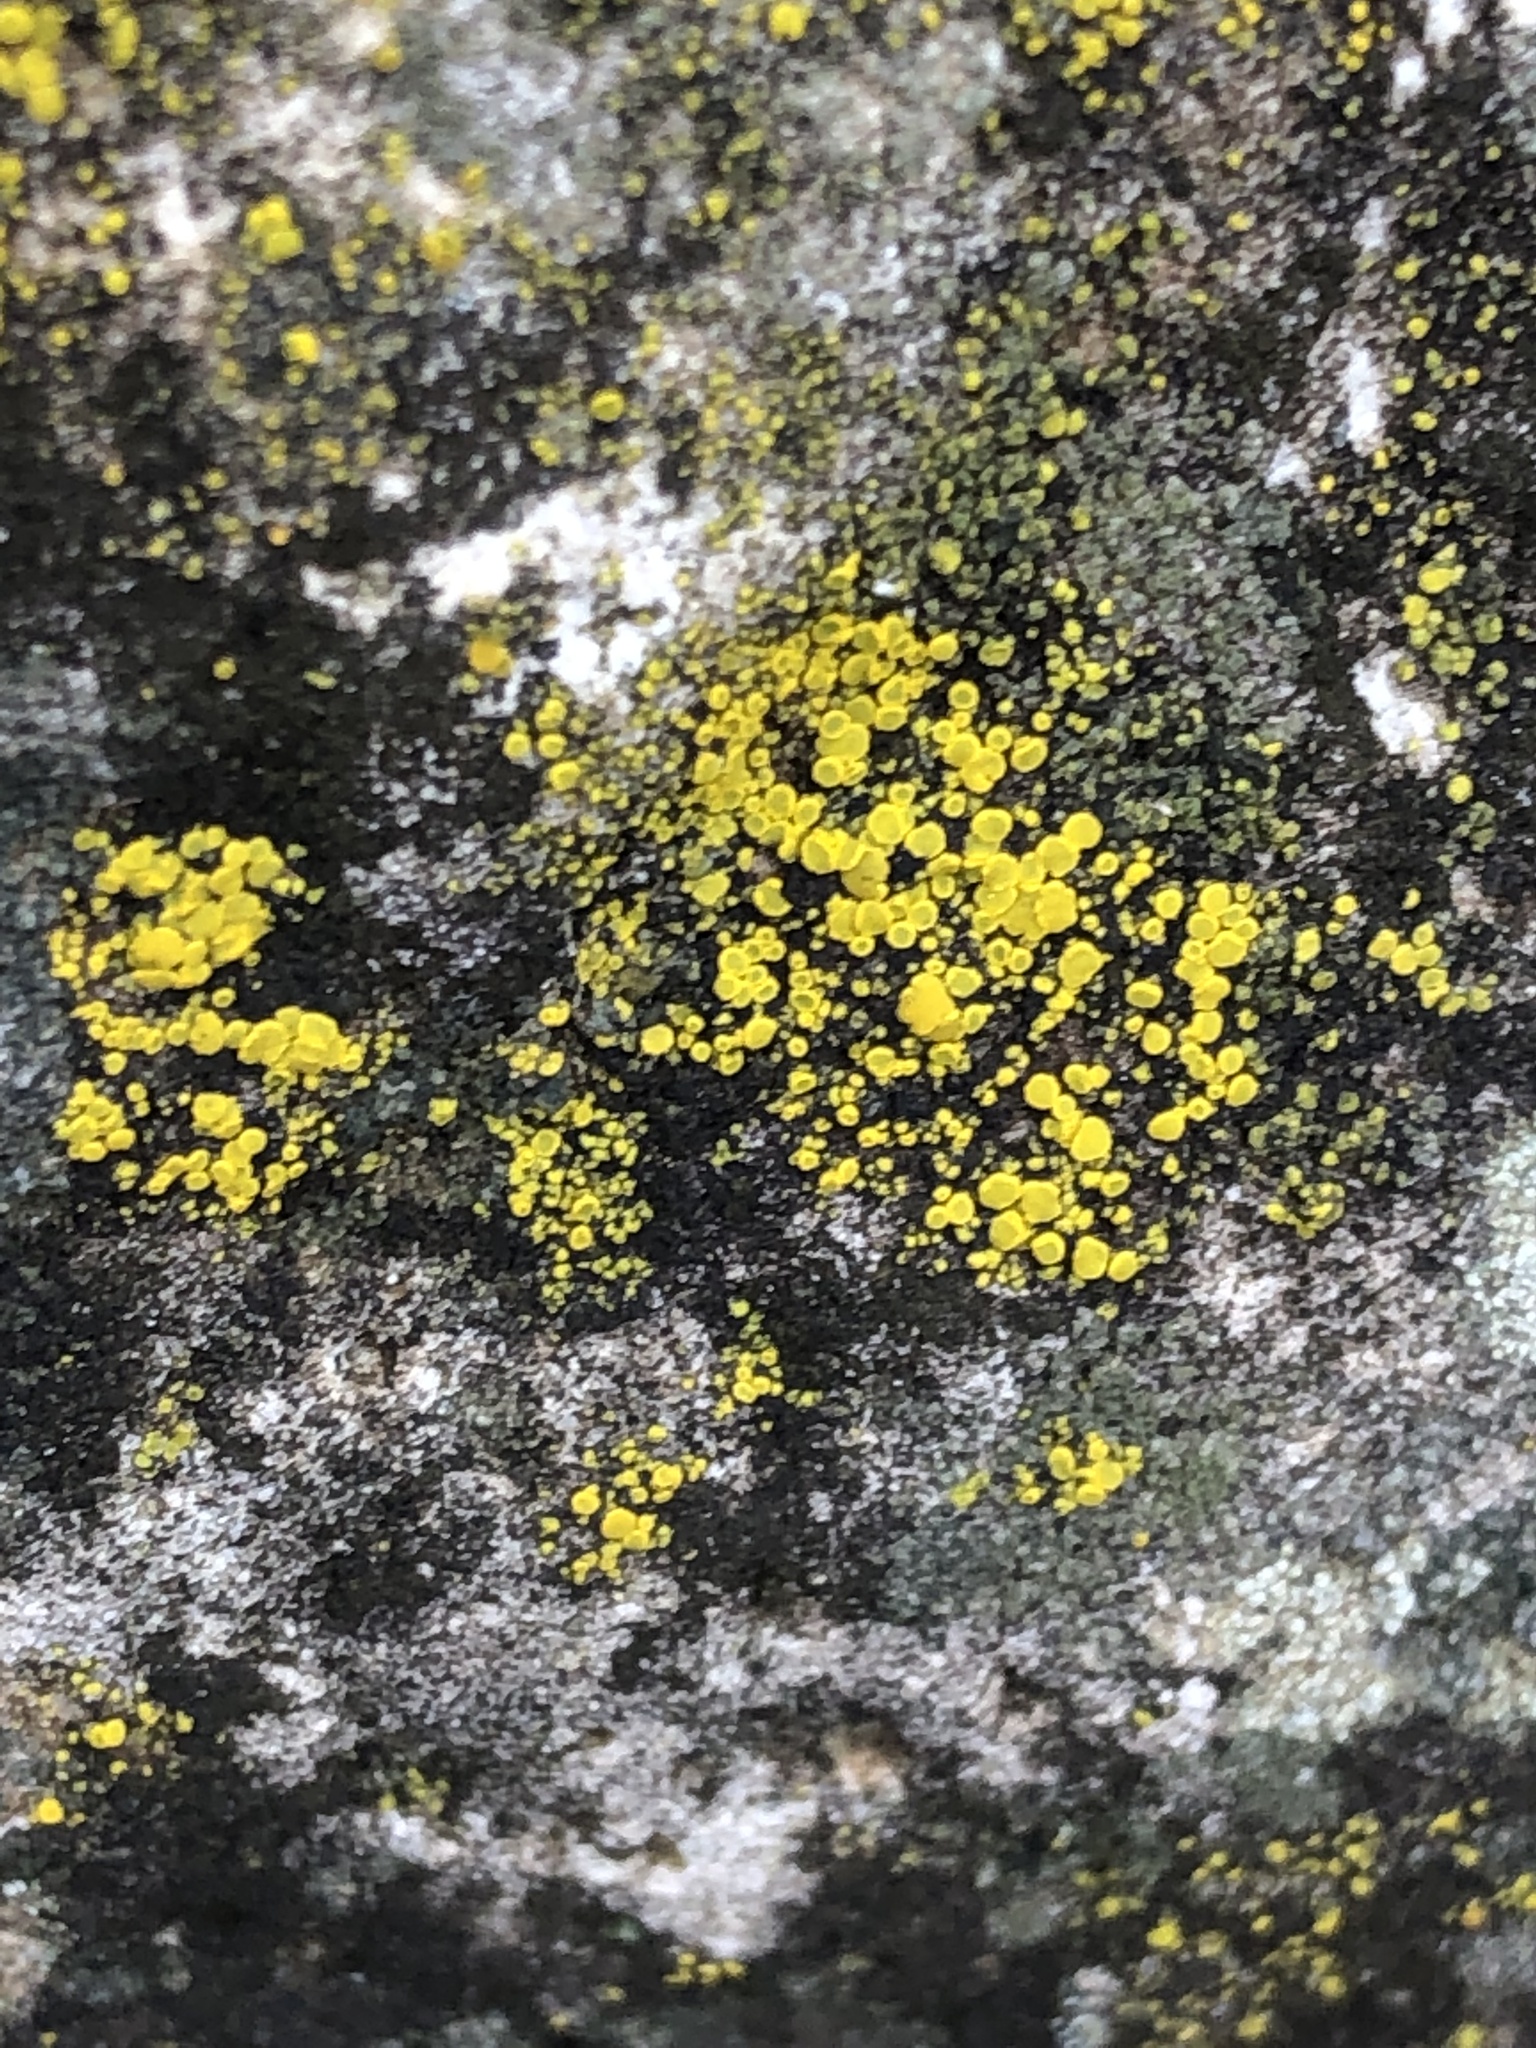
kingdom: Fungi
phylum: Ascomycota
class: Candelariomycetes
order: Candelariales
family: Candelariaceae
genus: Candelariella
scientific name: Candelariella vitellina
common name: Common goldspeck
